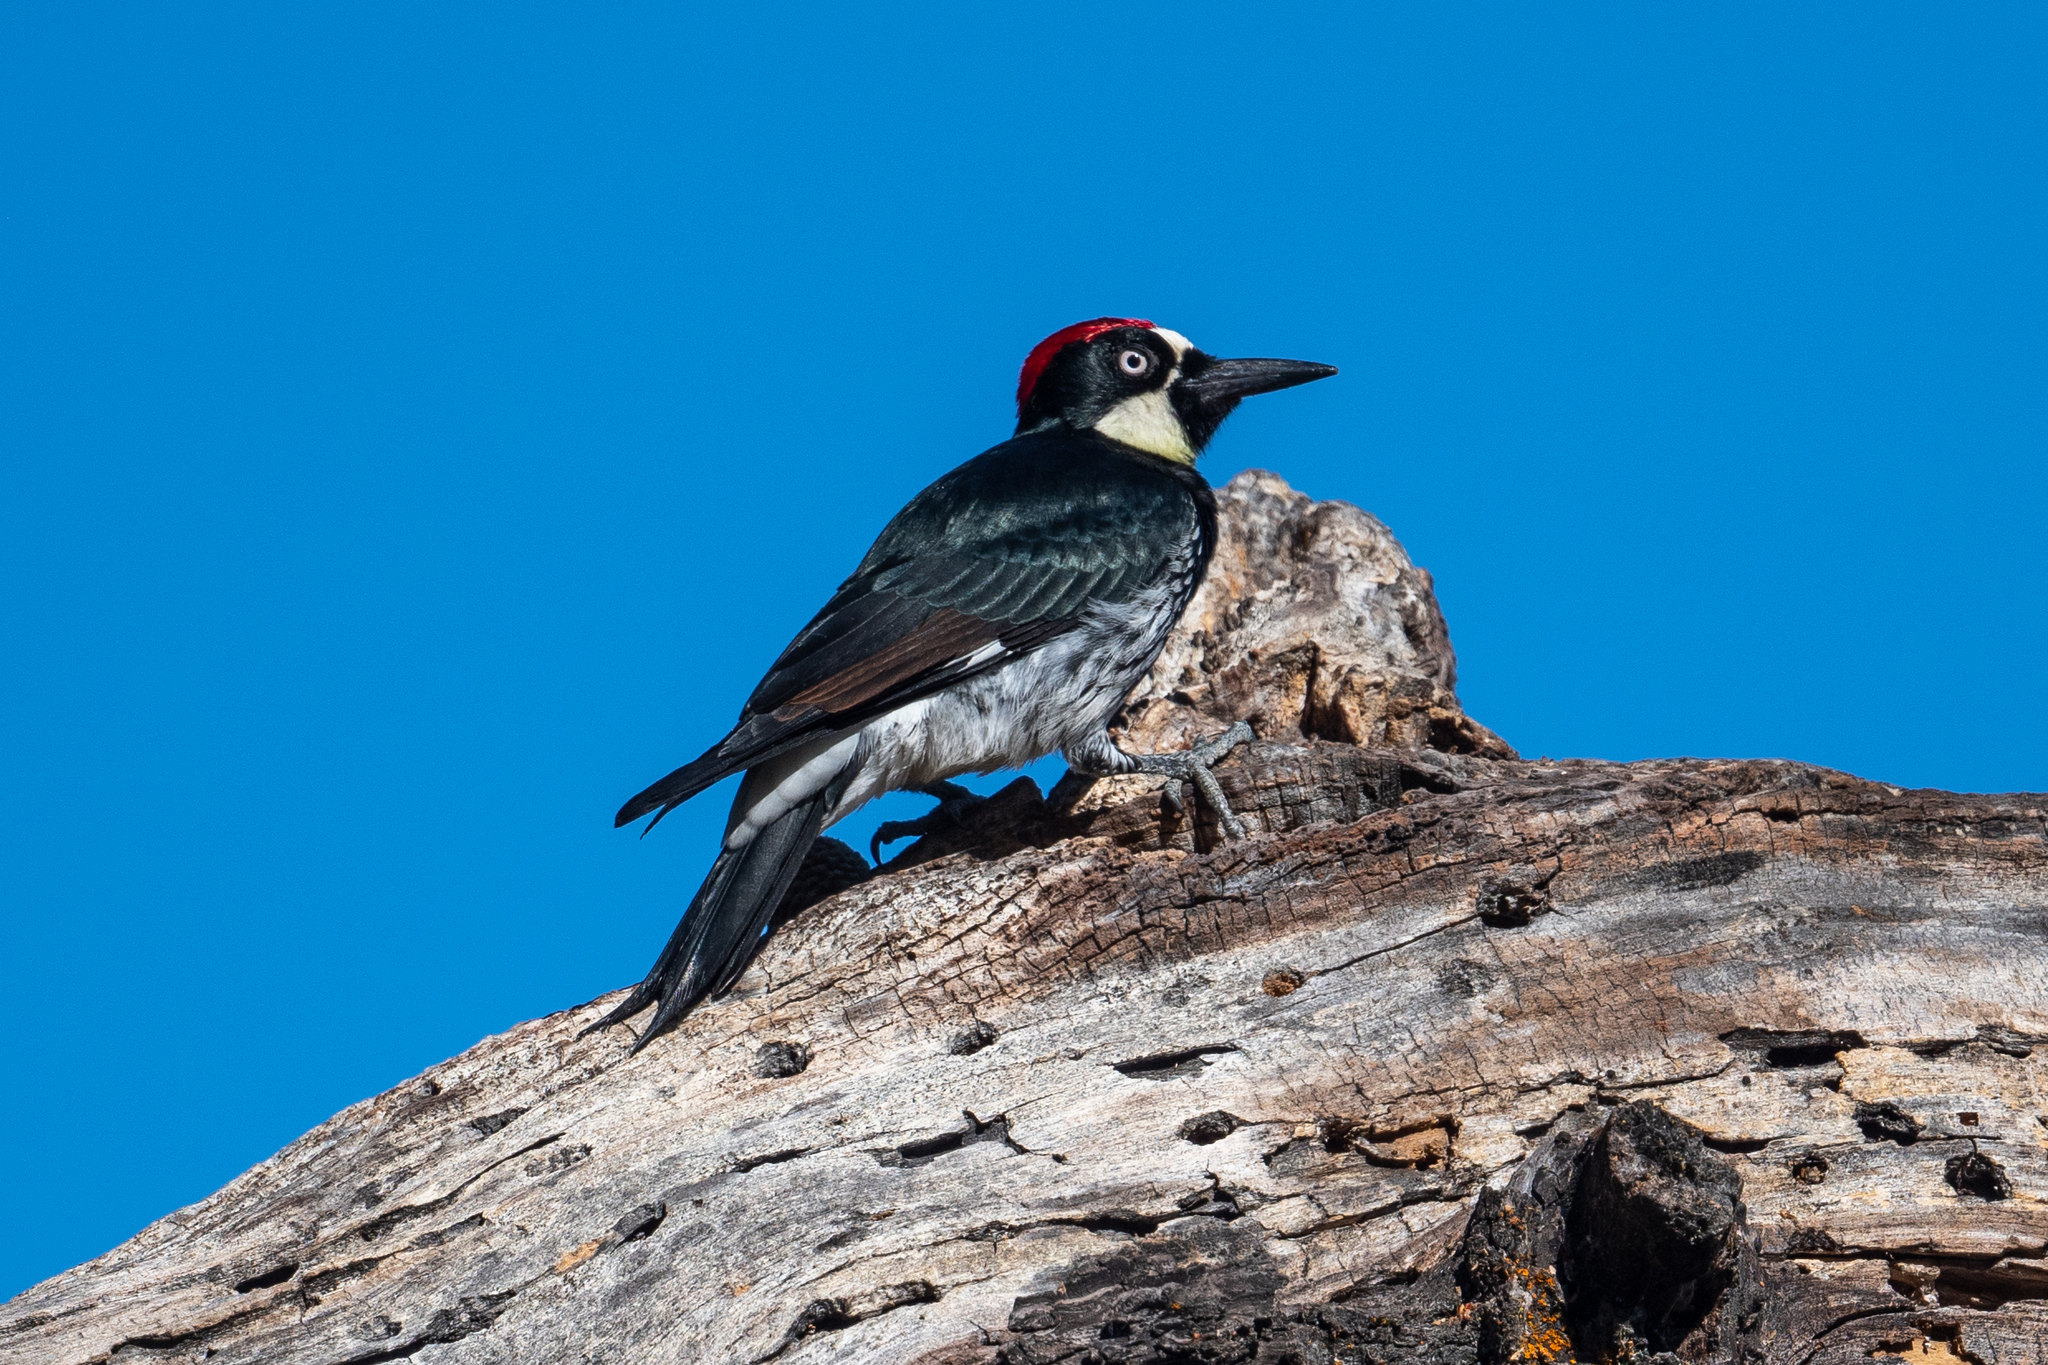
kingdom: Animalia
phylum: Chordata
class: Aves
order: Piciformes
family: Picidae
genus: Melanerpes
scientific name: Melanerpes formicivorus
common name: Acorn woodpecker
